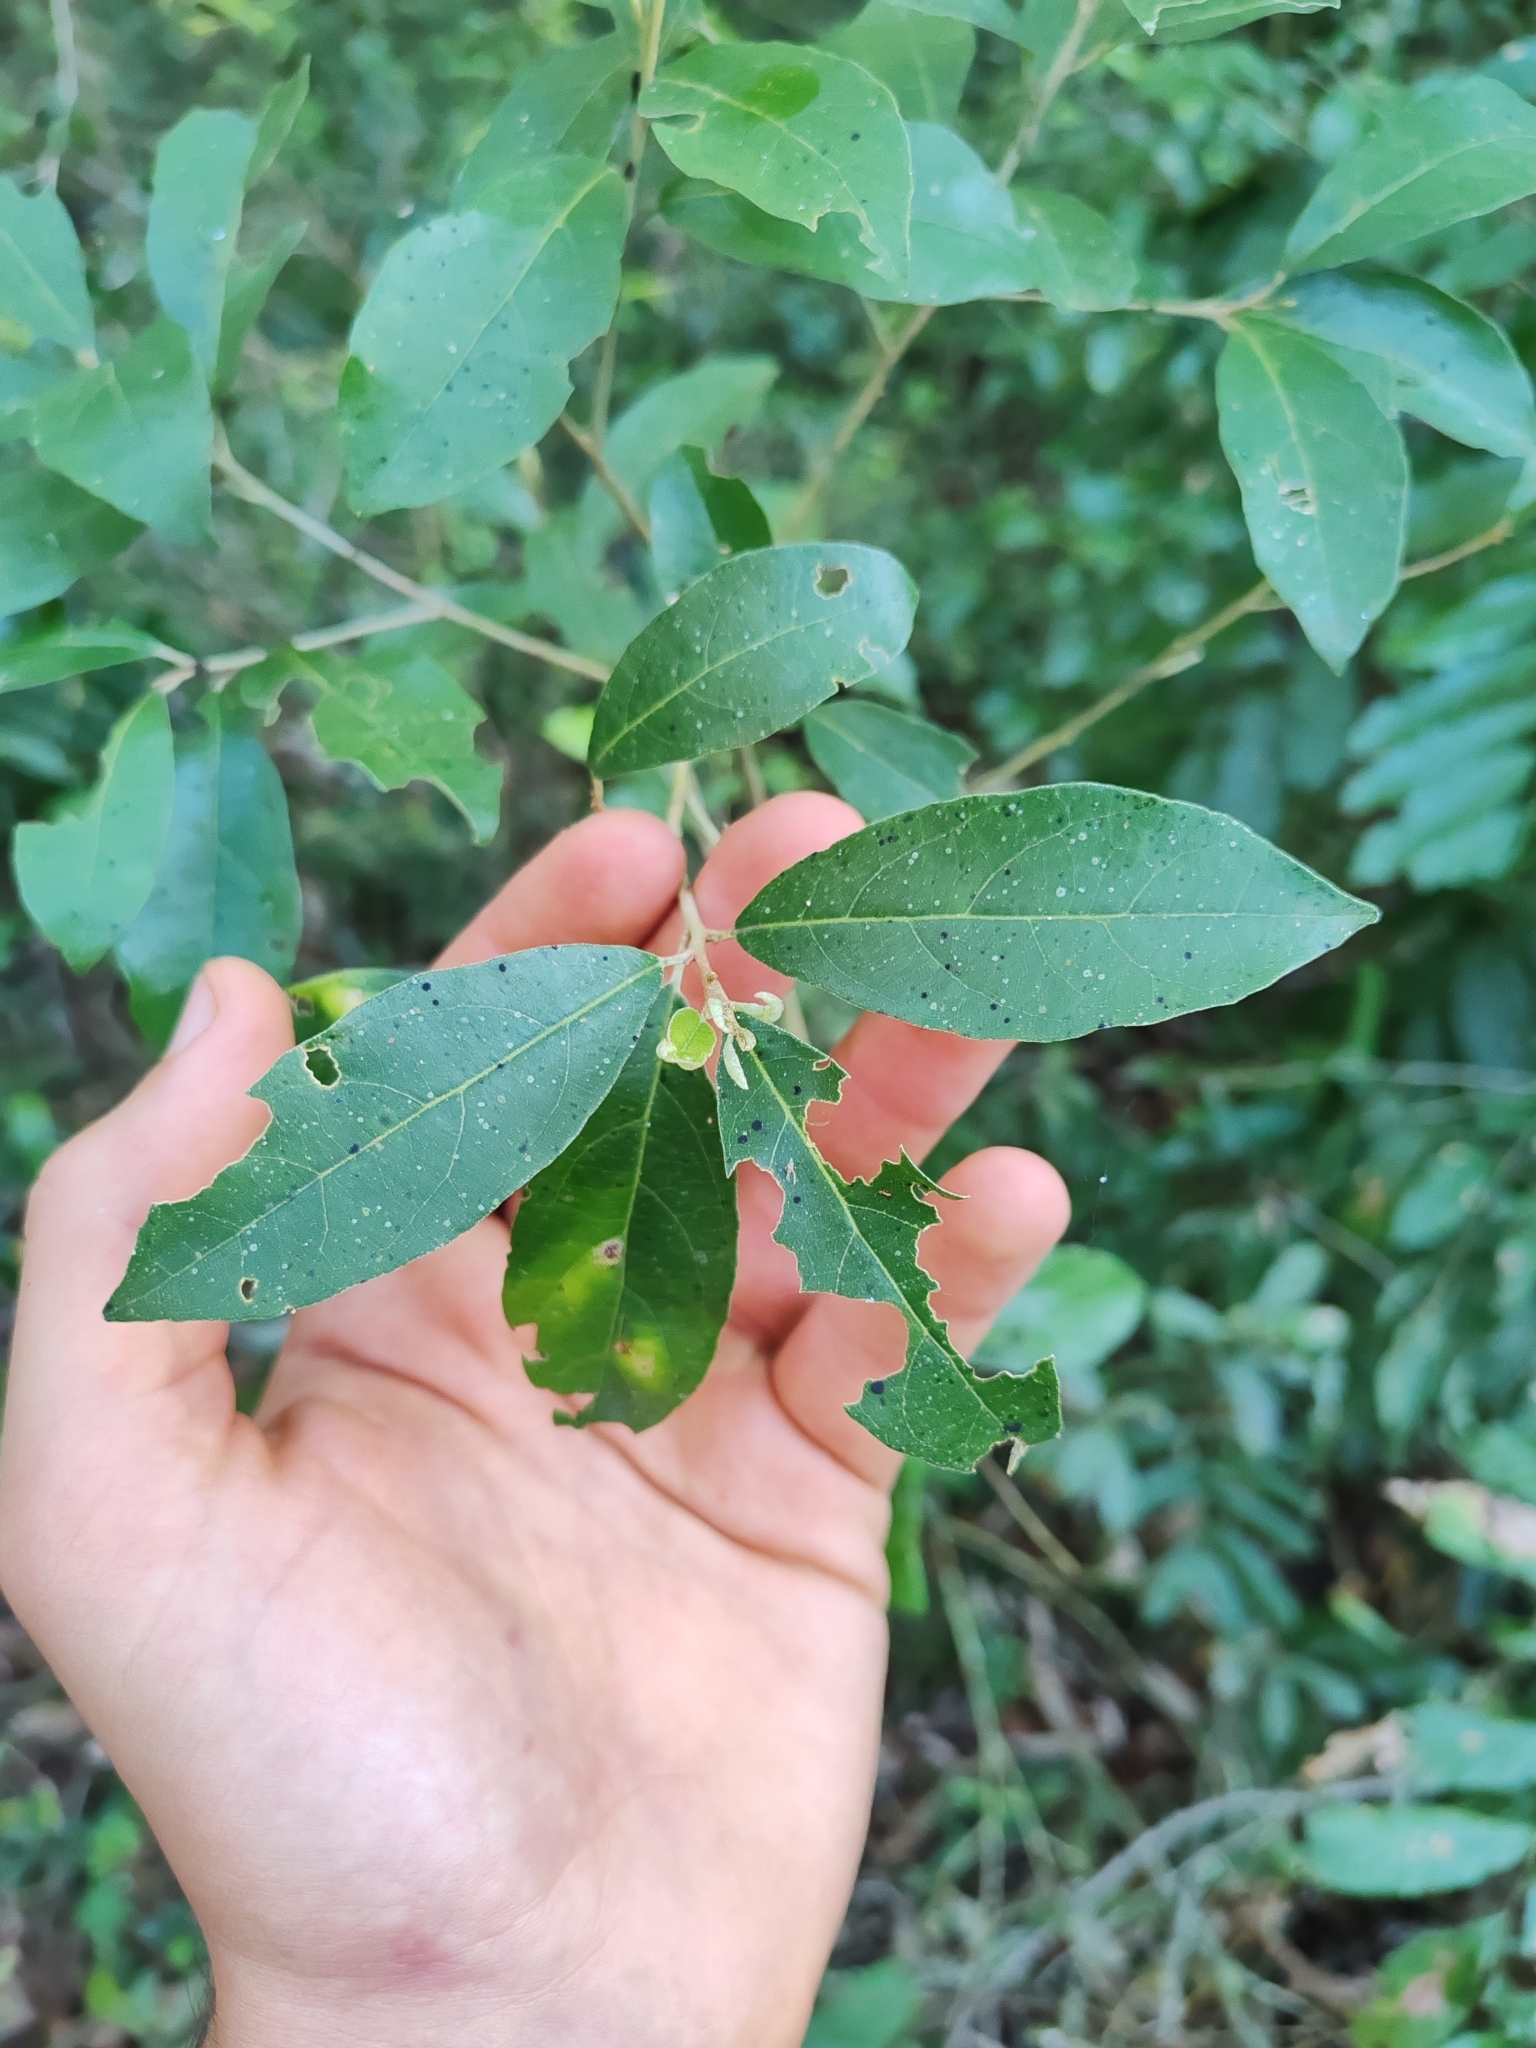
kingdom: Plantae
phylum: Tracheophyta
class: Magnoliopsida
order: Ericales
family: Styracaceae
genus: Styrax
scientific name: Styrax leprosus
